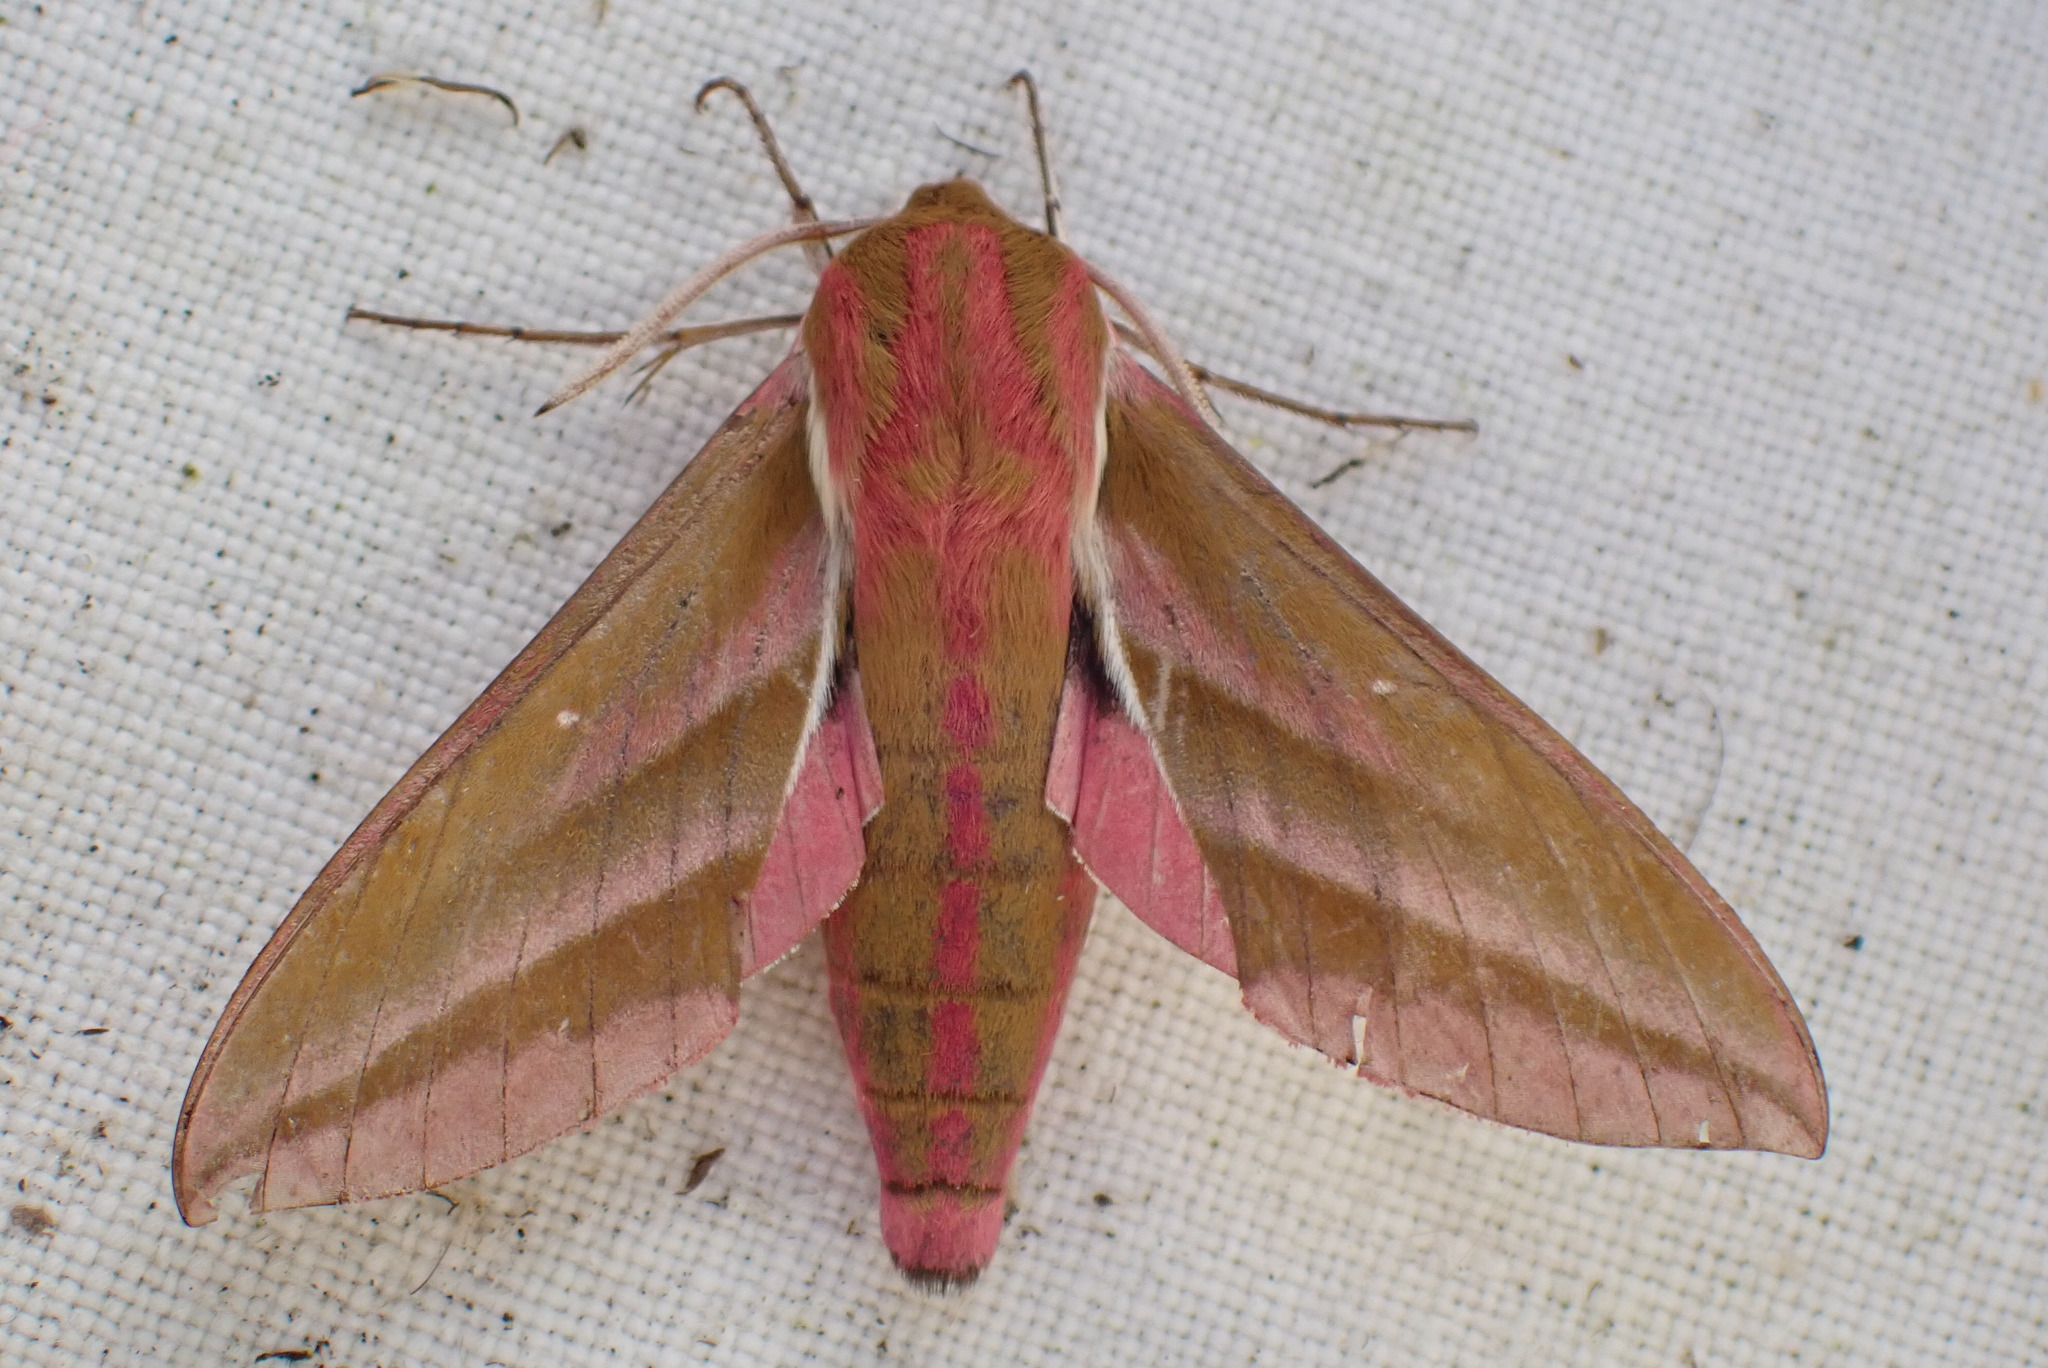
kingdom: Animalia
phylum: Arthropoda
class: Insecta
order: Lepidoptera
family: Sphingidae
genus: Deilephila
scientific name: Deilephila elpenor
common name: Elephant hawk-moth
